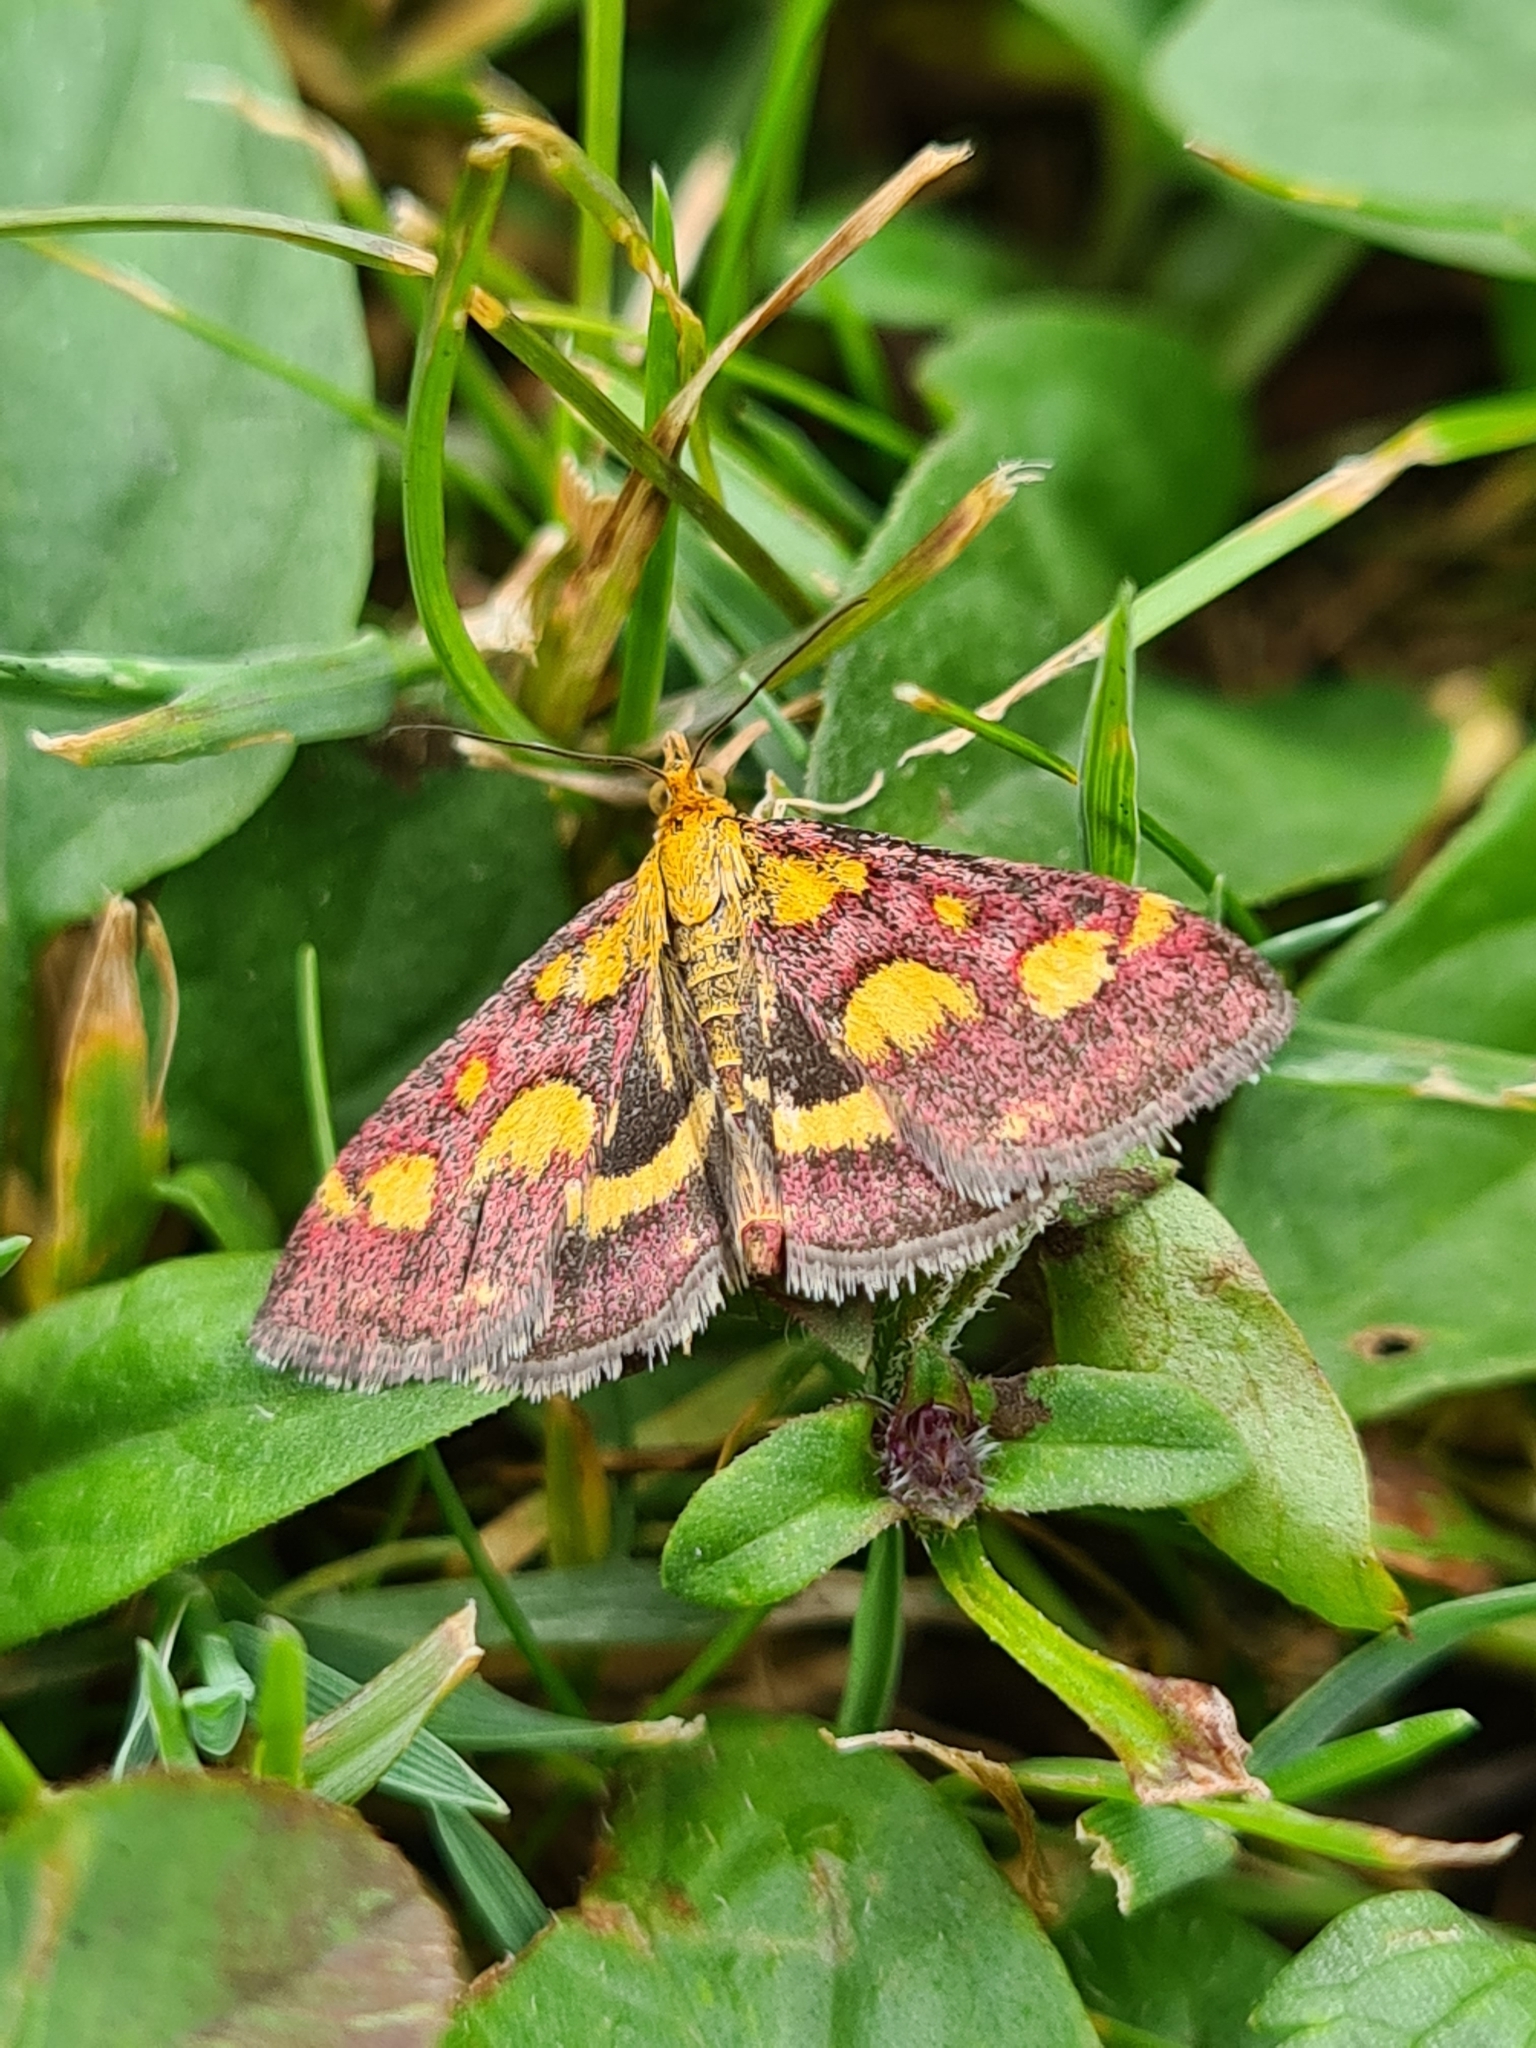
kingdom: Animalia
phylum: Arthropoda
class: Insecta
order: Lepidoptera
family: Crambidae
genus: Pyrausta
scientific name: Pyrausta purpuralis
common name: Common purple & gold
